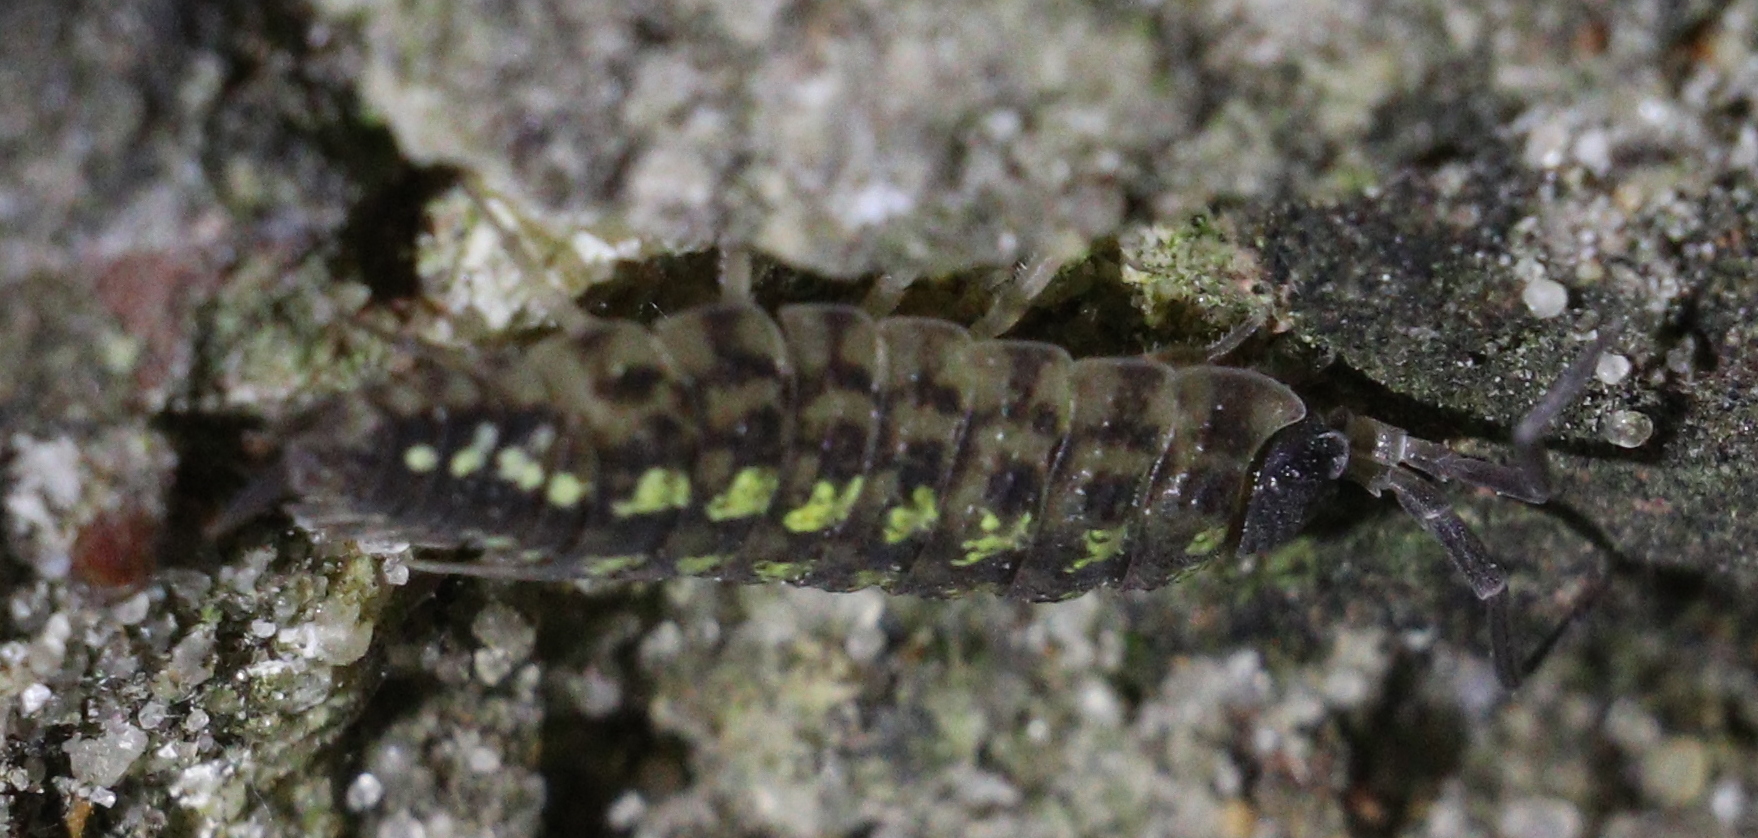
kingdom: Animalia
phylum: Arthropoda
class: Malacostraca
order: Isopoda
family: Porcellionidae
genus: Porcellio
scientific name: Porcellio spinicornis
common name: Painted woodlouse
